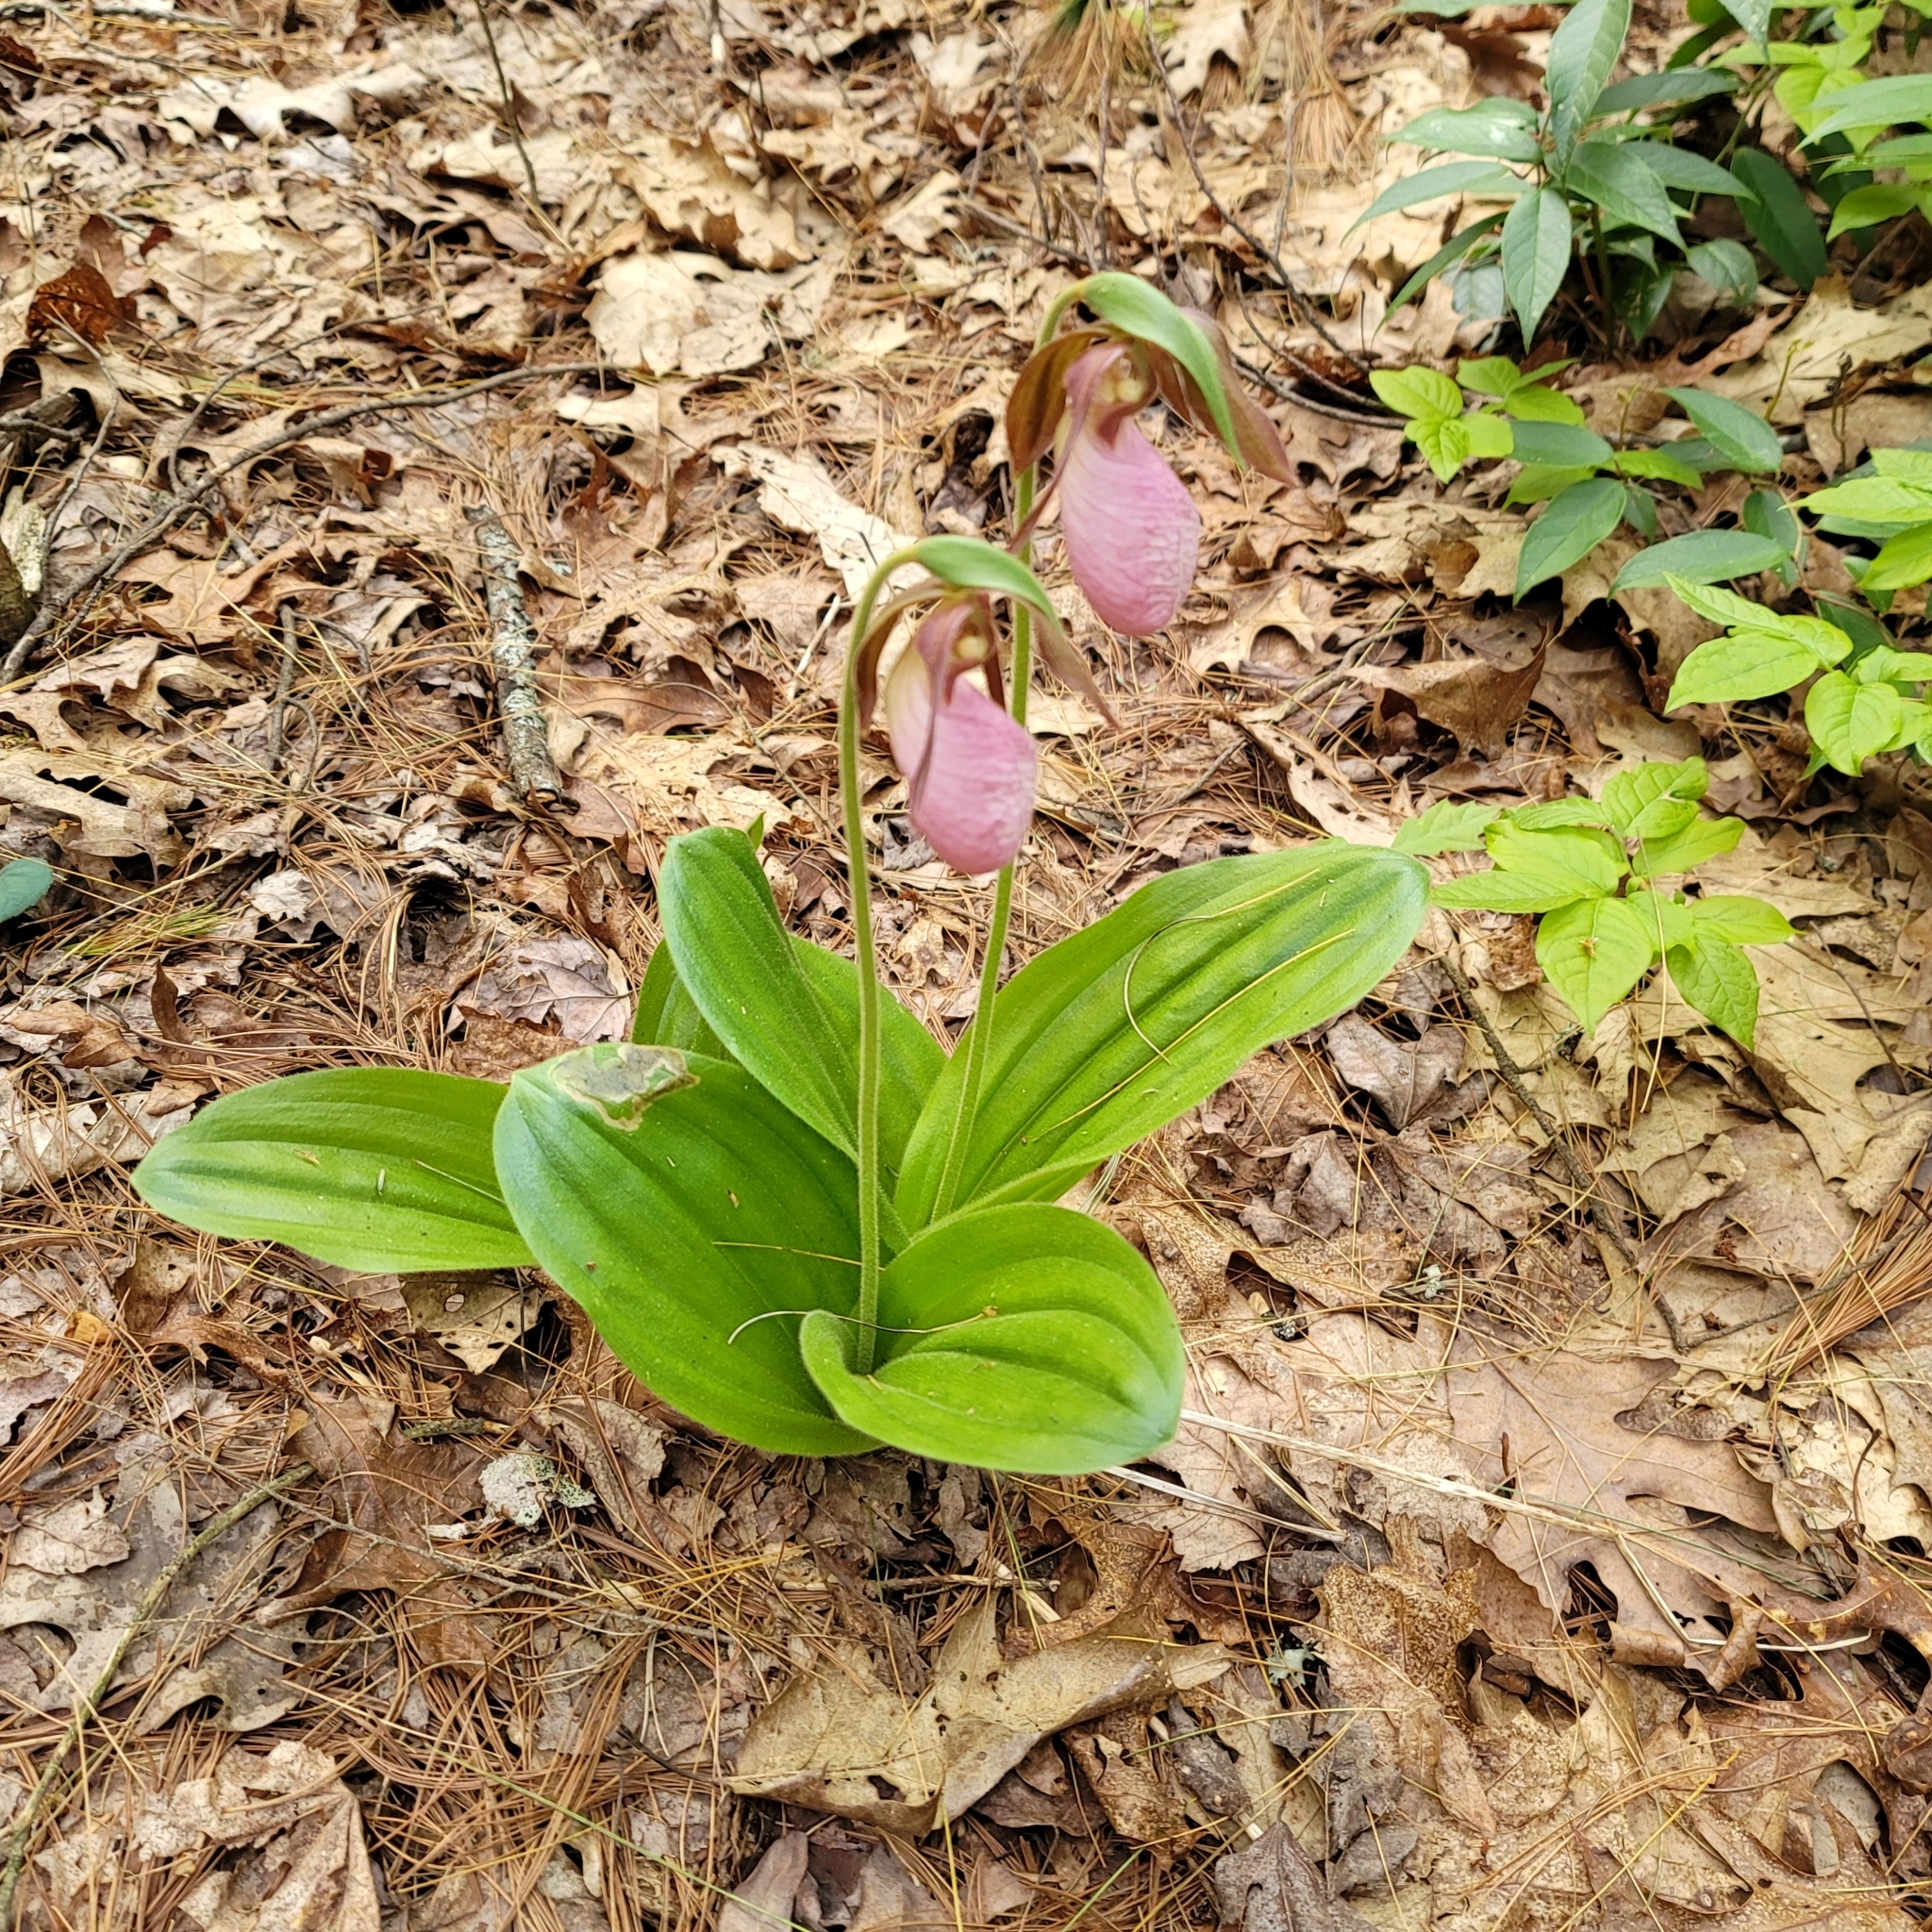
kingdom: Plantae
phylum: Tracheophyta
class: Liliopsida
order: Asparagales
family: Orchidaceae
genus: Cypripedium
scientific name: Cypripedium acaule
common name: Pink lady's-slipper
